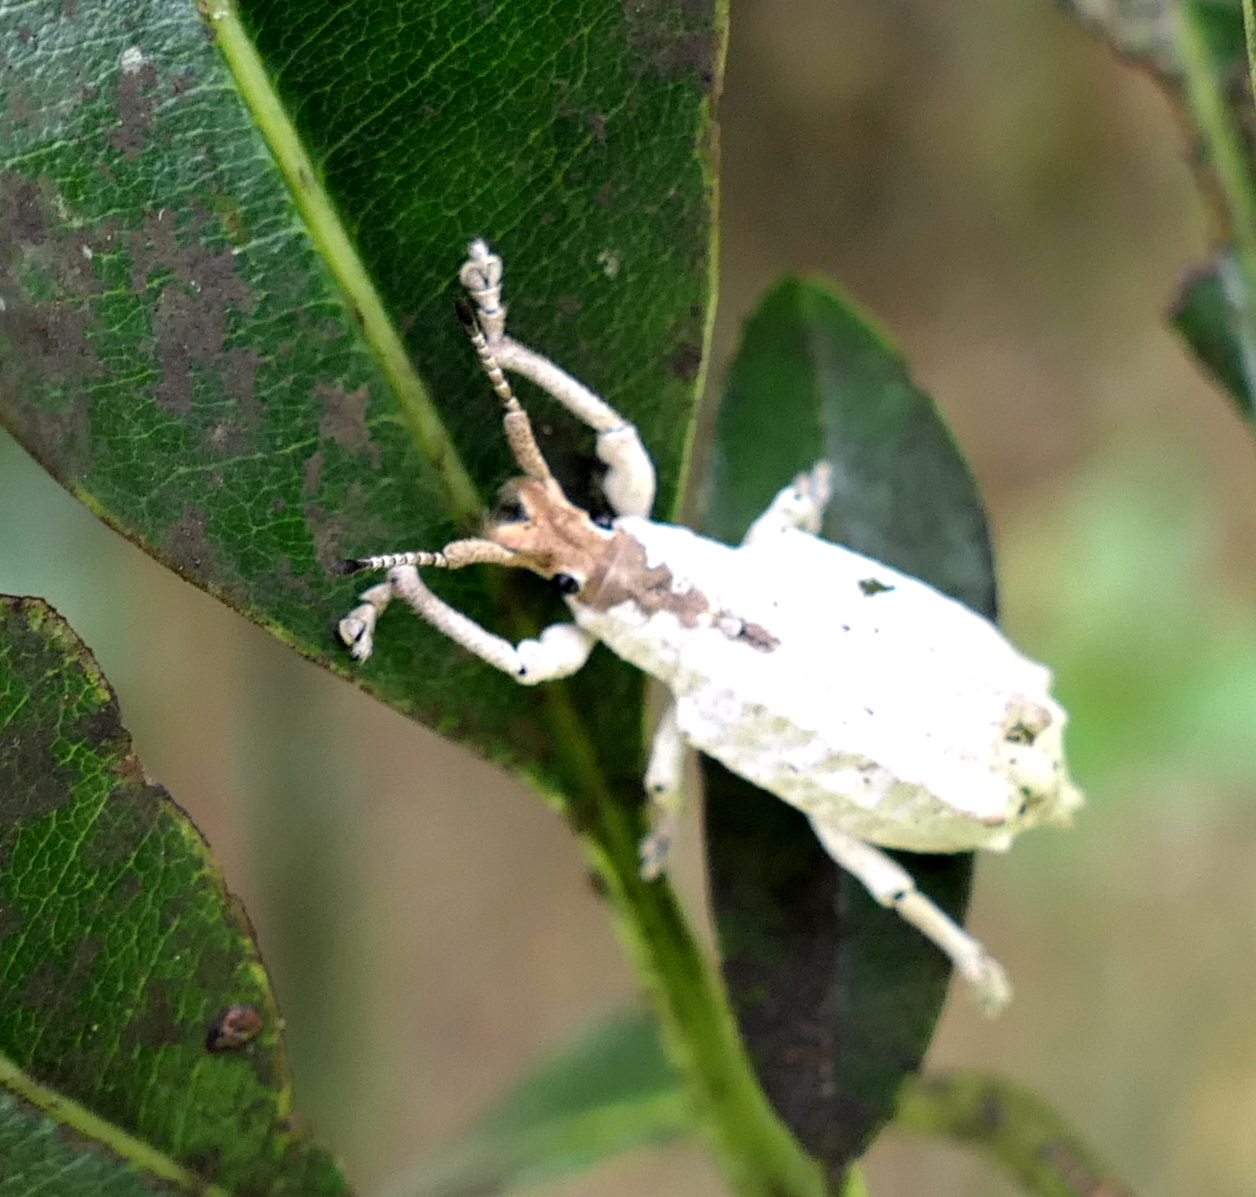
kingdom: Animalia
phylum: Arthropoda
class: Insecta
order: Coleoptera
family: Curculionidae
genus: Compsus
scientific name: Compsus niveus
